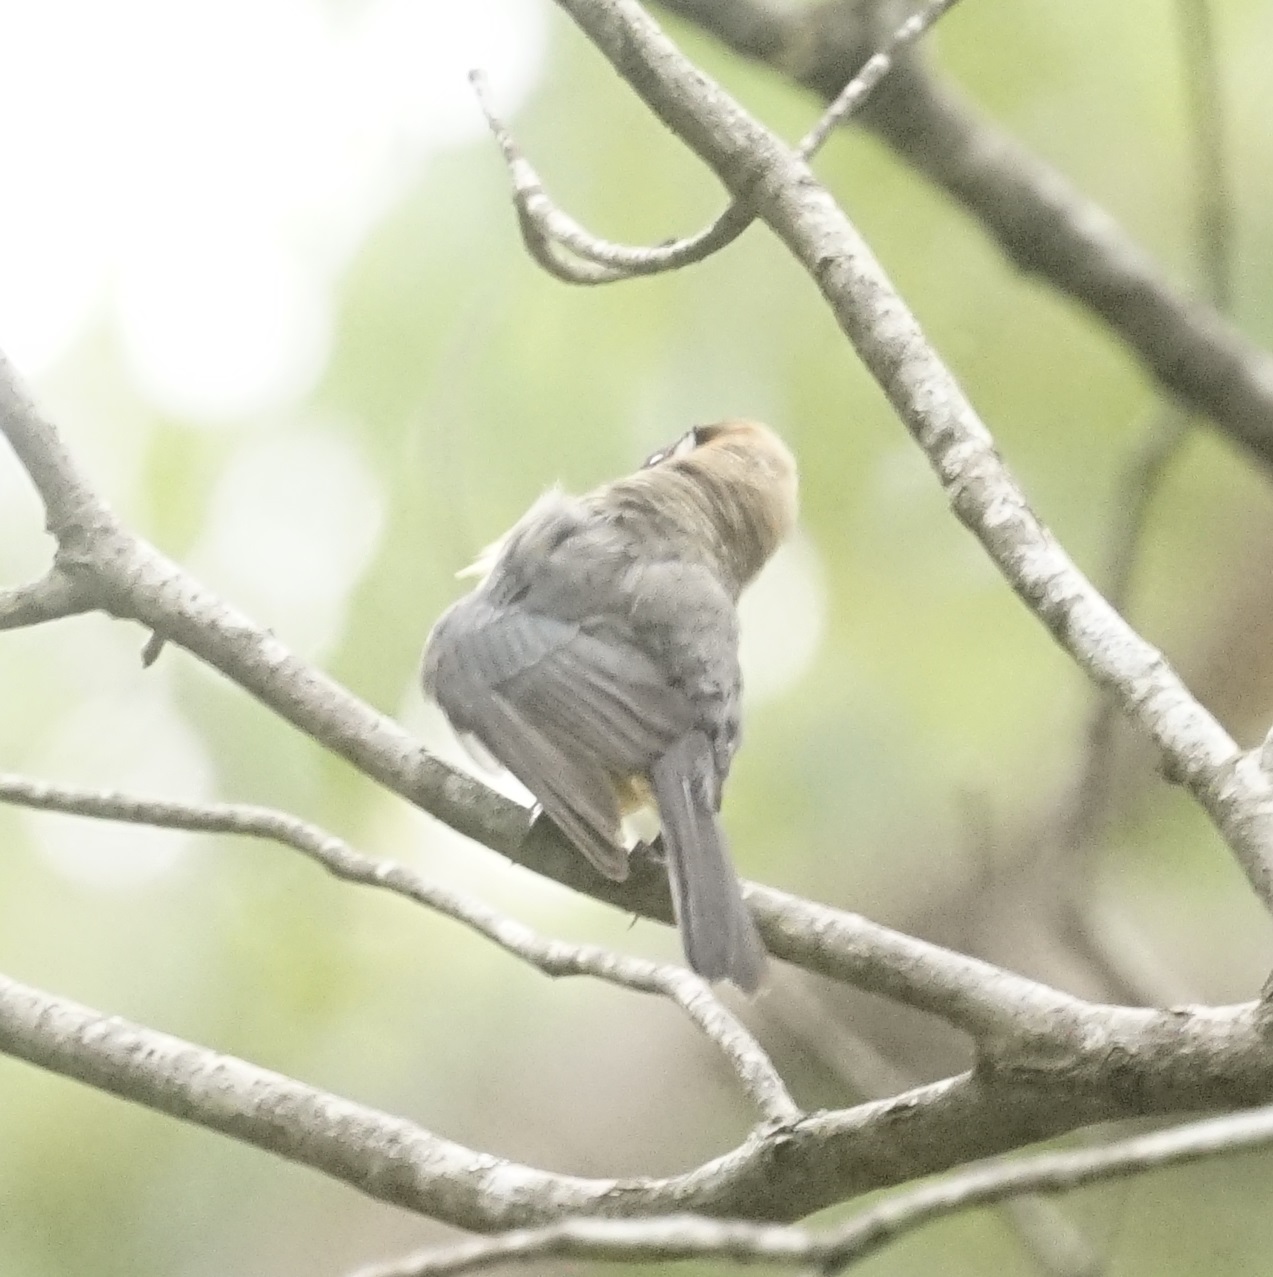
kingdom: Animalia
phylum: Chordata
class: Aves
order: Passeriformes
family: Meliphagidae
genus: Acanthorhynchus
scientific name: Acanthorhynchus tenuirostris
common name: Eastern spinebill
